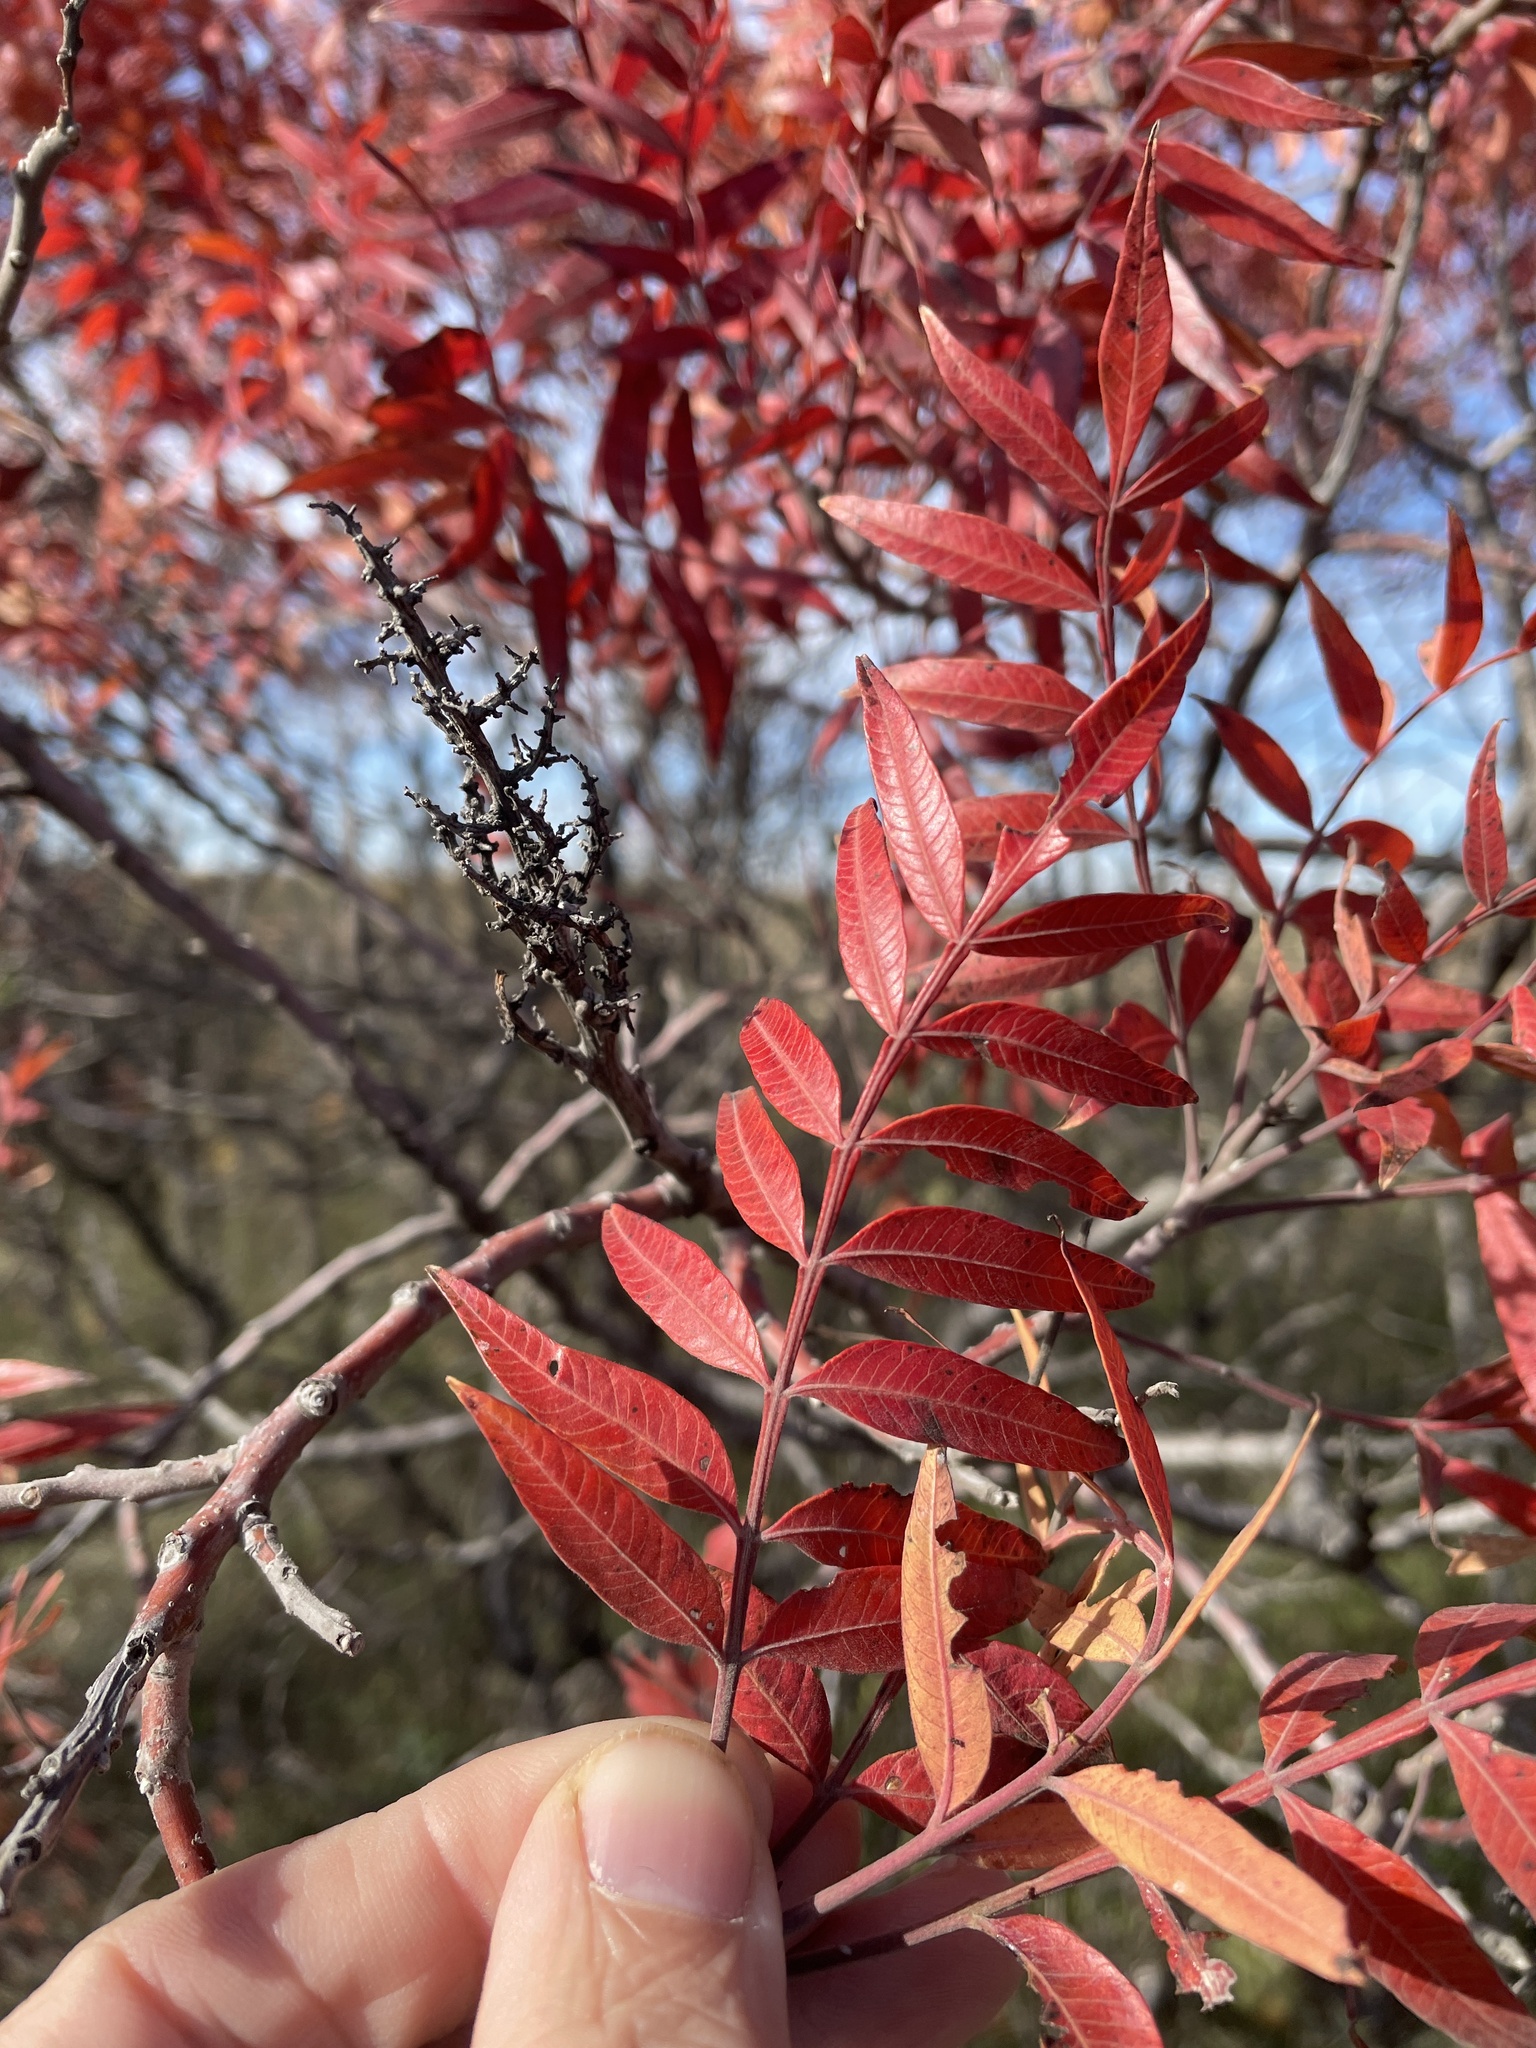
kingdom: Plantae
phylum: Tracheophyta
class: Magnoliopsida
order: Sapindales
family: Anacardiaceae
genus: Rhus
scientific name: Rhus lanceolata
